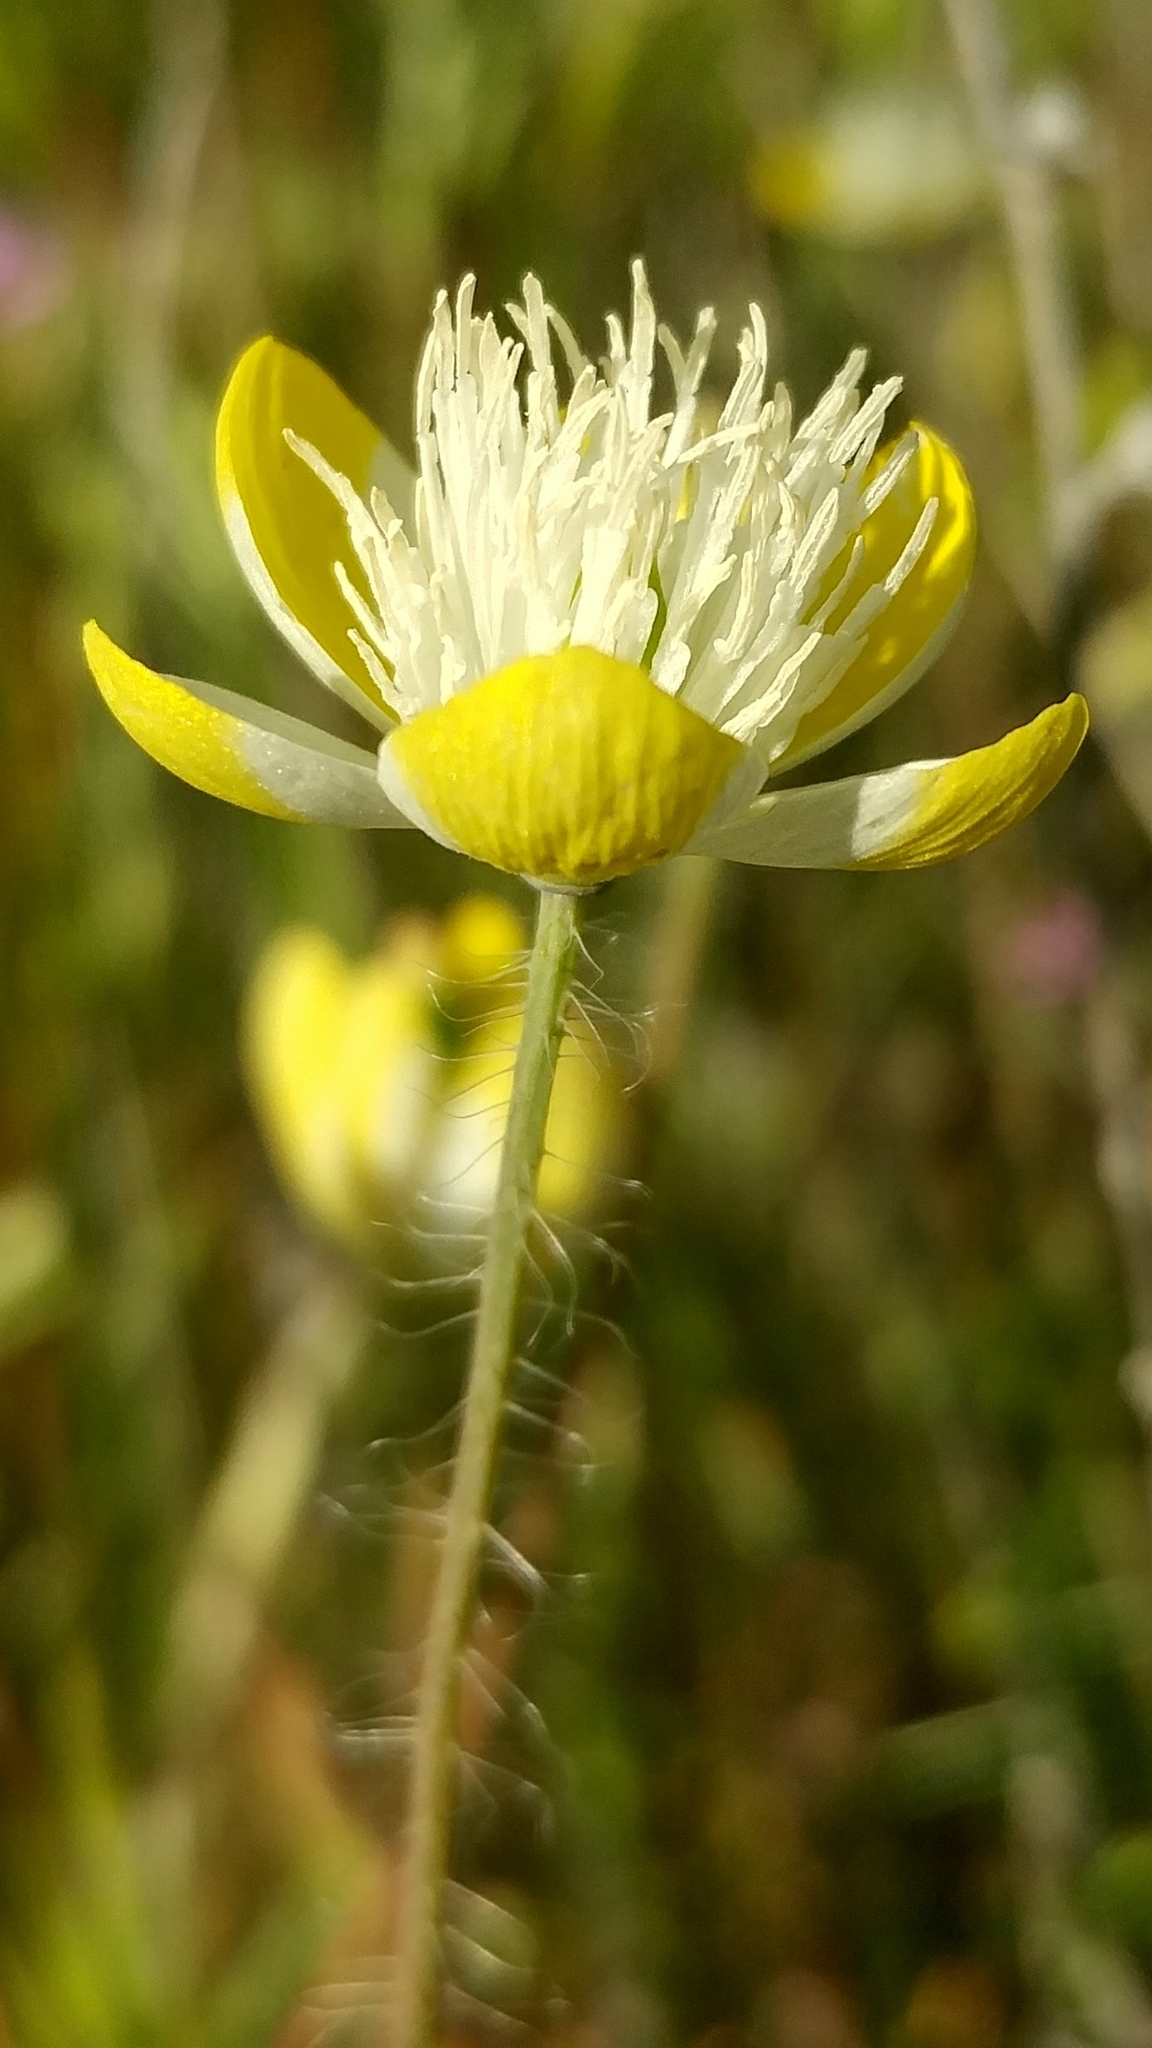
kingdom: Plantae
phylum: Tracheophyta
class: Magnoliopsida
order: Ranunculales
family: Papaveraceae
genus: Platystemon
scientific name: Platystemon californicus
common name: Cream-cups
